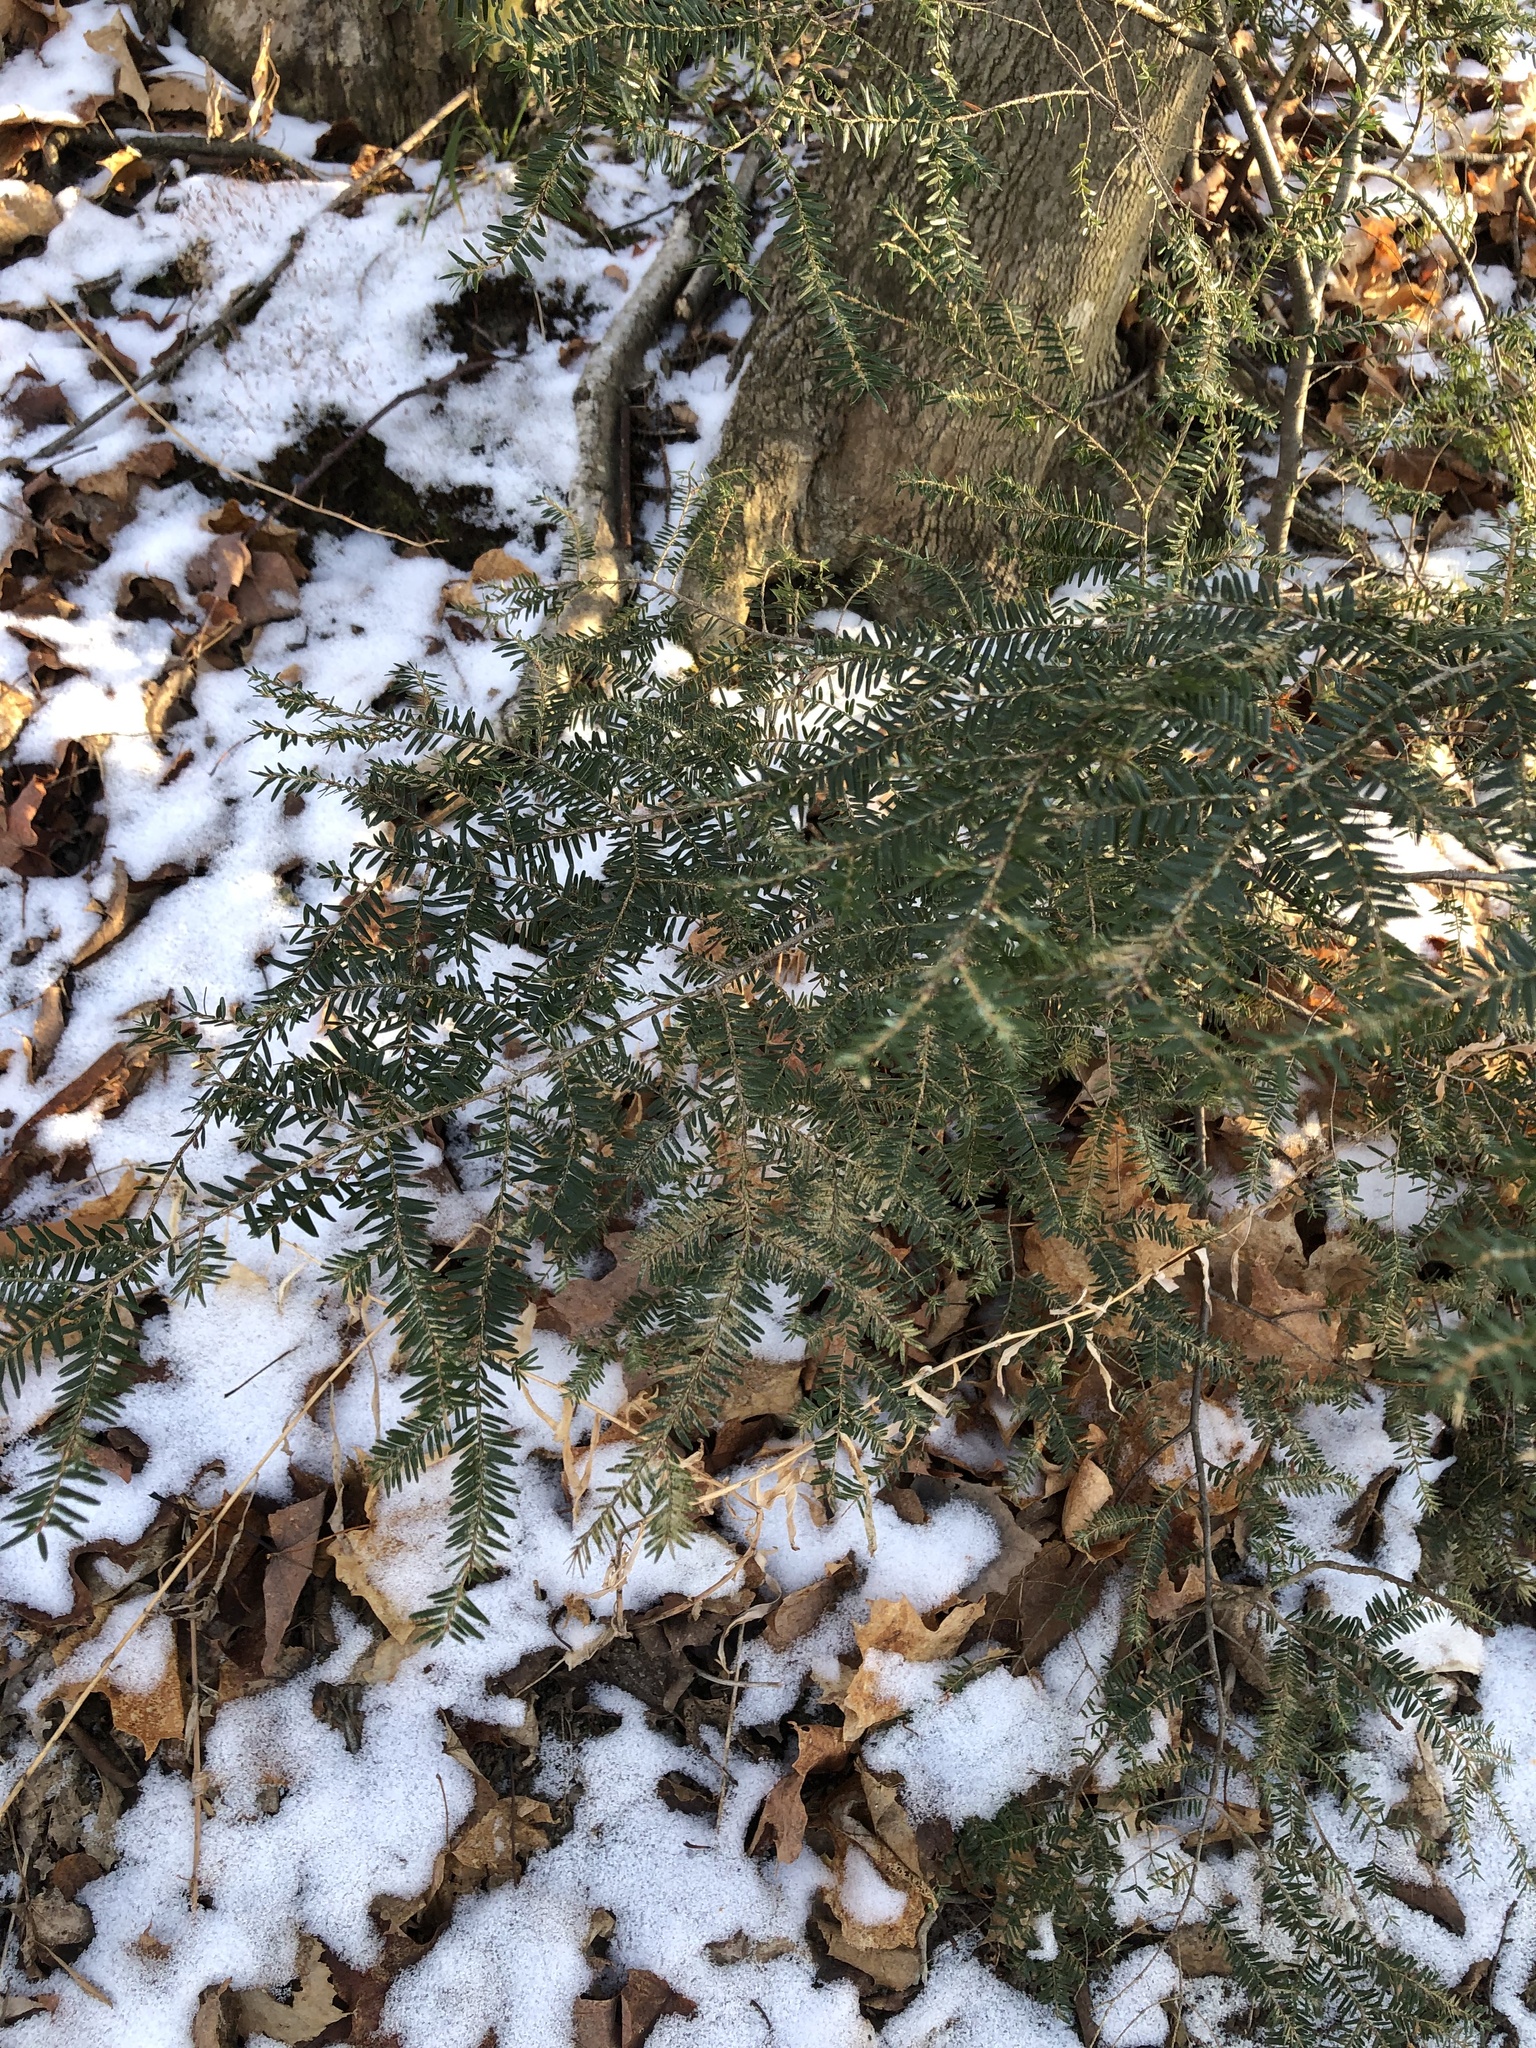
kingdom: Plantae
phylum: Tracheophyta
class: Pinopsida
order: Pinales
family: Pinaceae
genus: Tsuga
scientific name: Tsuga canadensis
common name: Eastern hemlock
